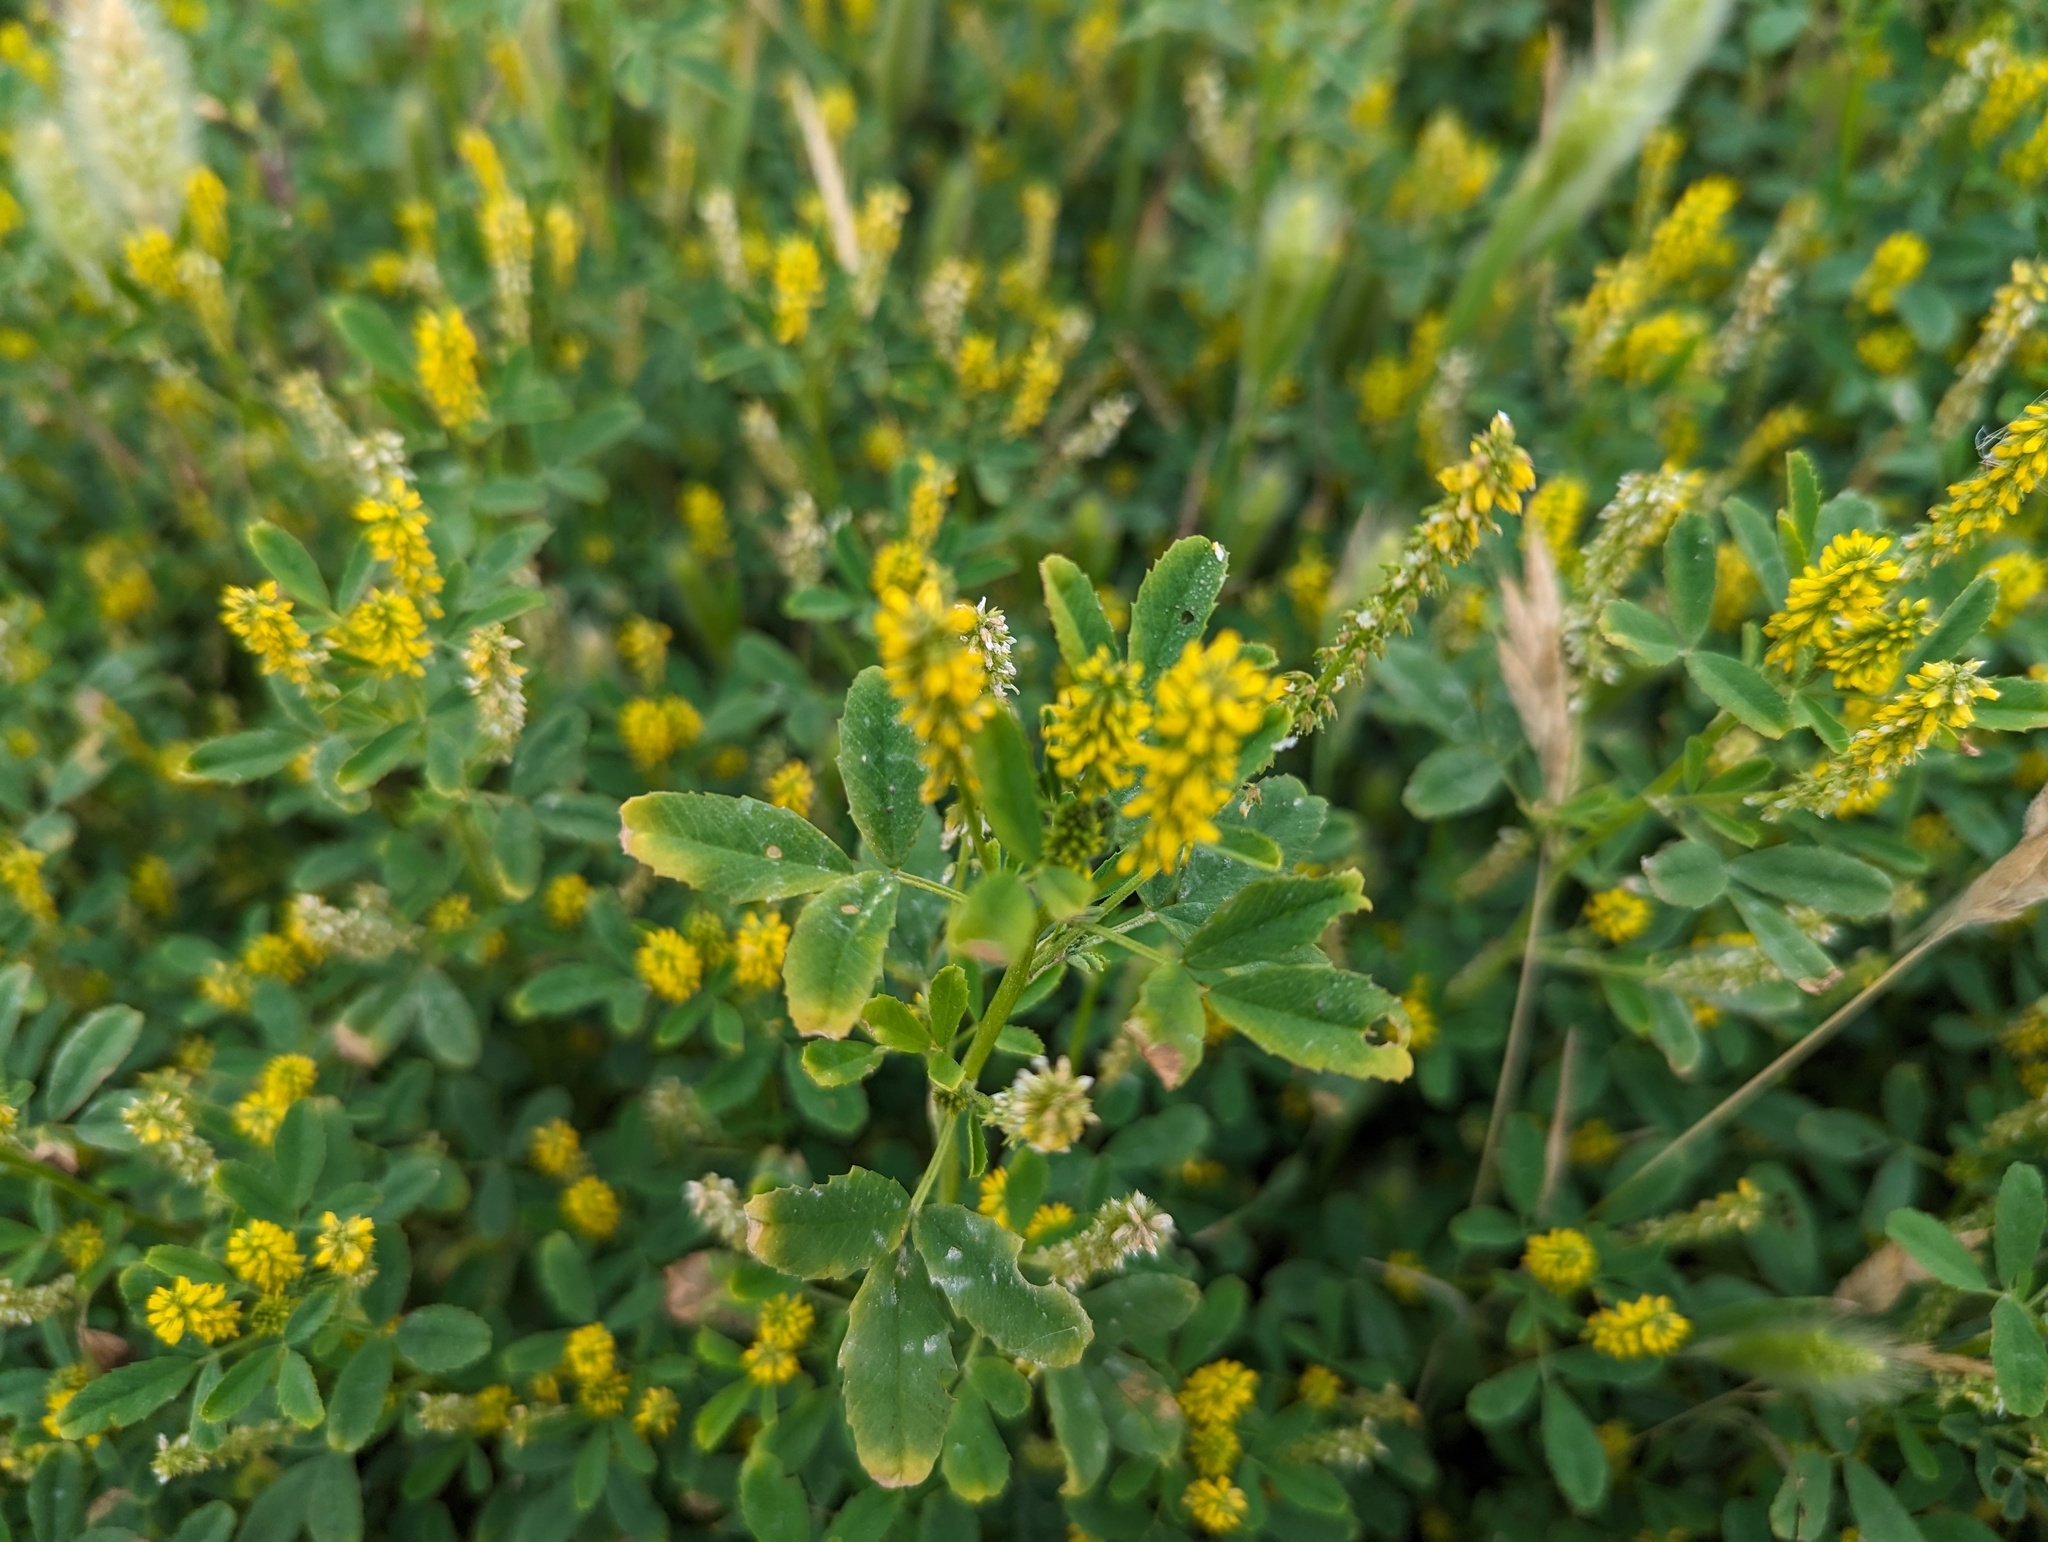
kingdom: Plantae
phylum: Tracheophyta
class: Magnoliopsida
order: Fabales
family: Fabaceae
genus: Melilotus
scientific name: Melilotus indicus
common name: Small melilot
